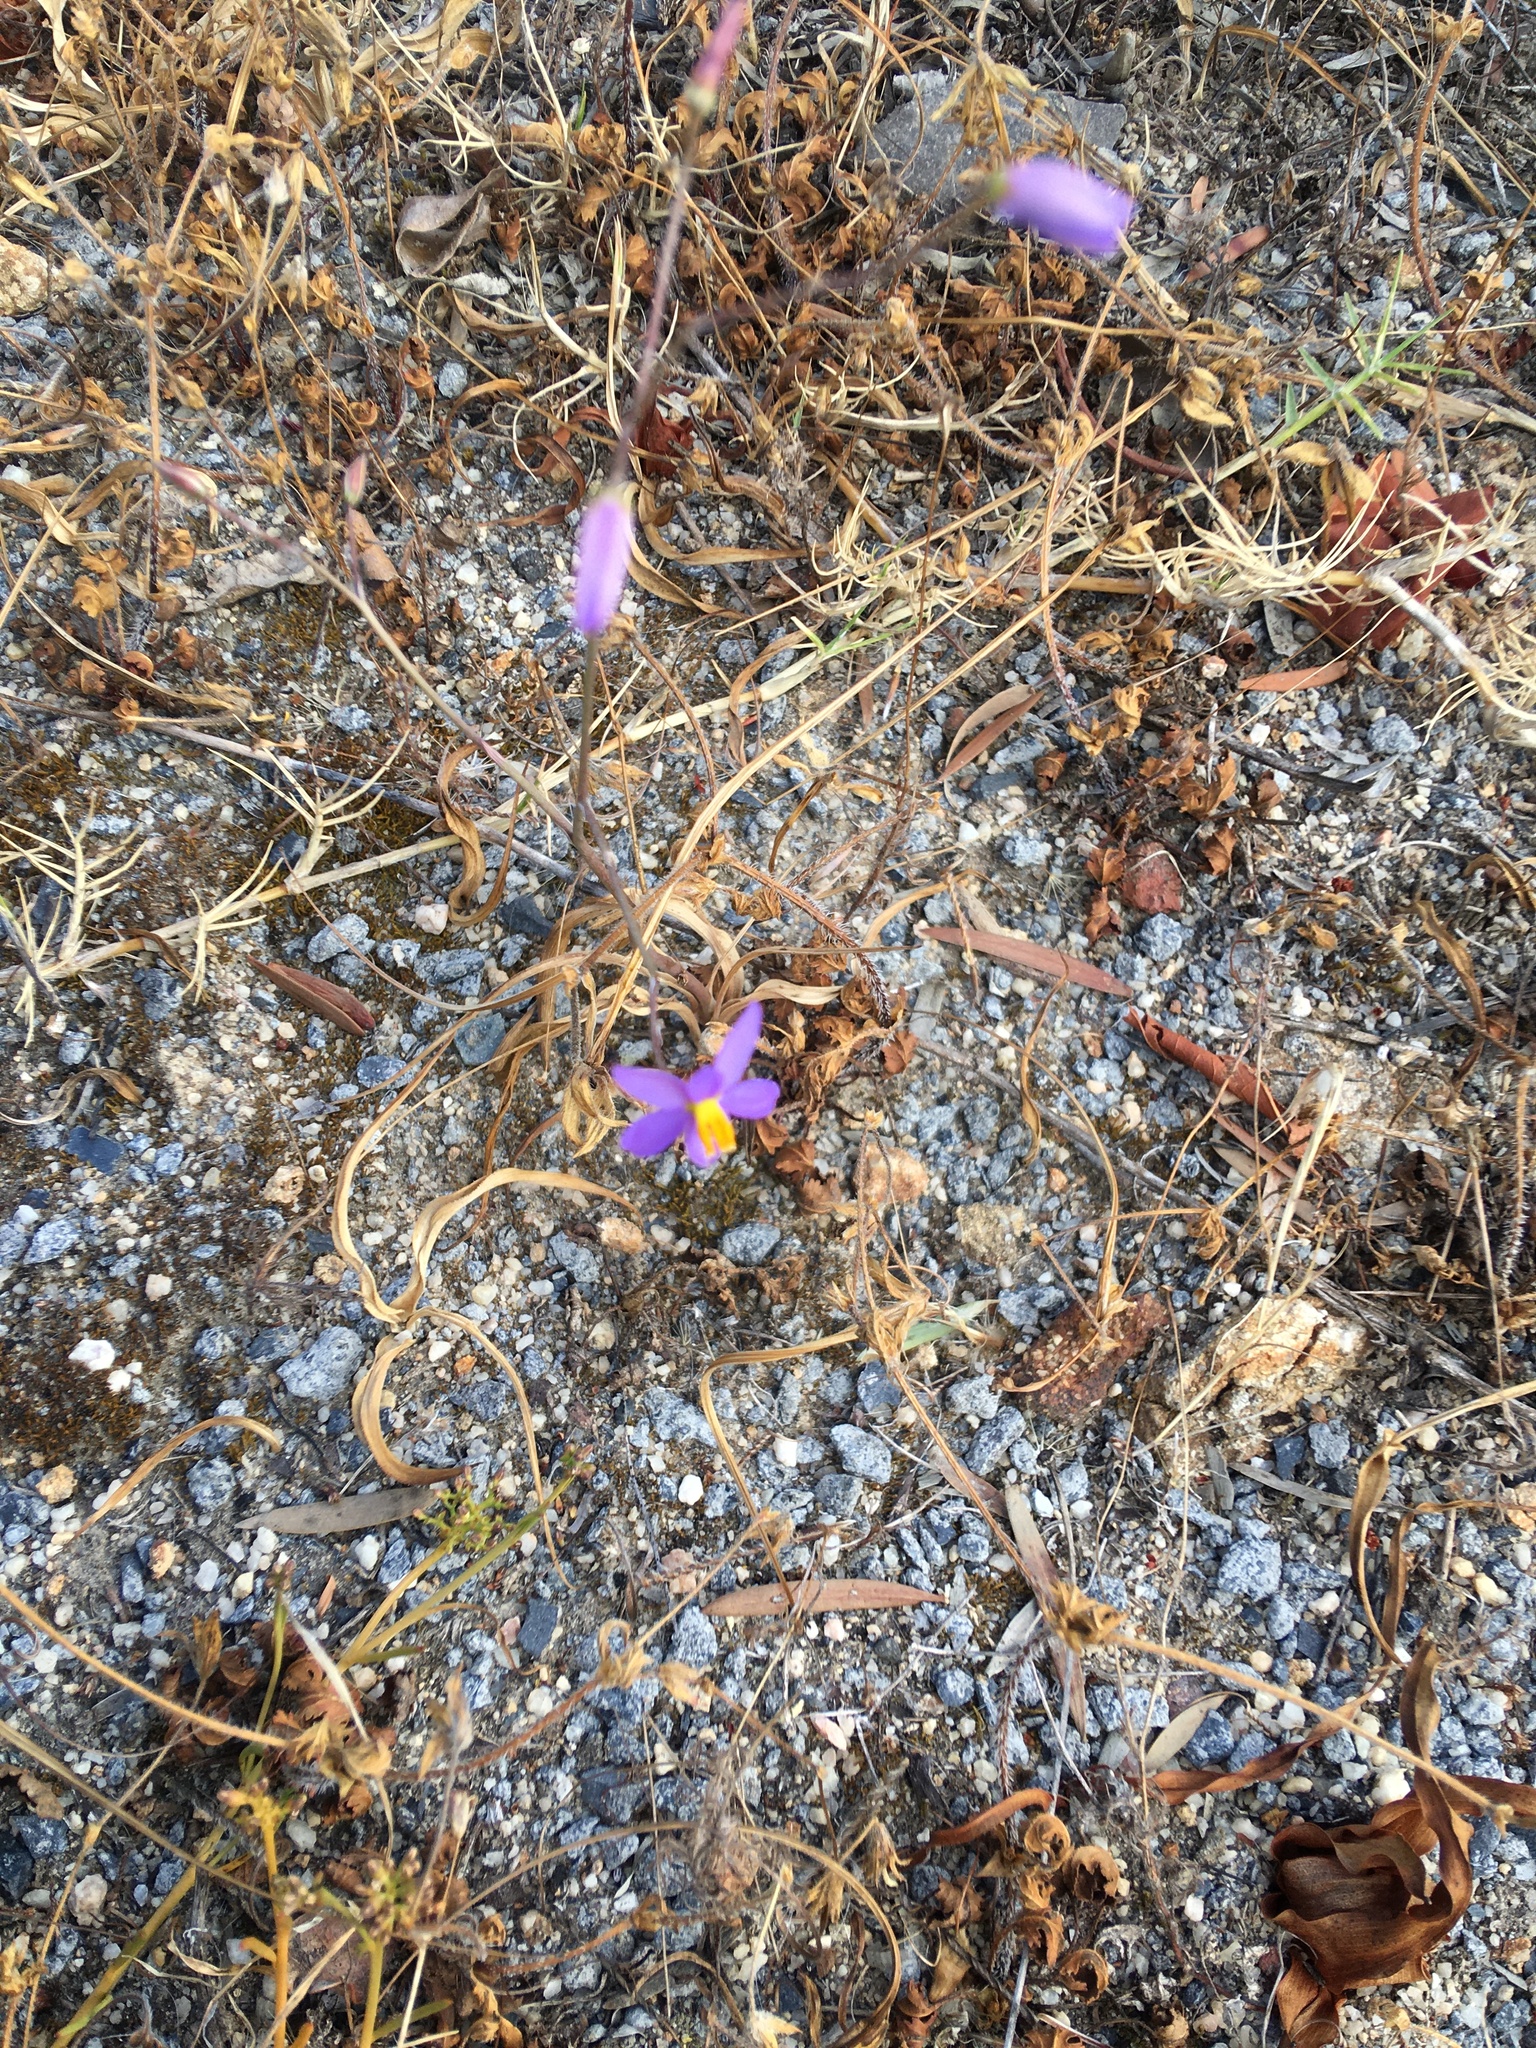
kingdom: Plantae
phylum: Tracheophyta
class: Liliopsida
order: Asparagales
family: Tecophilaeaceae
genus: Cyanella
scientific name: Cyanella hyacinthoides
